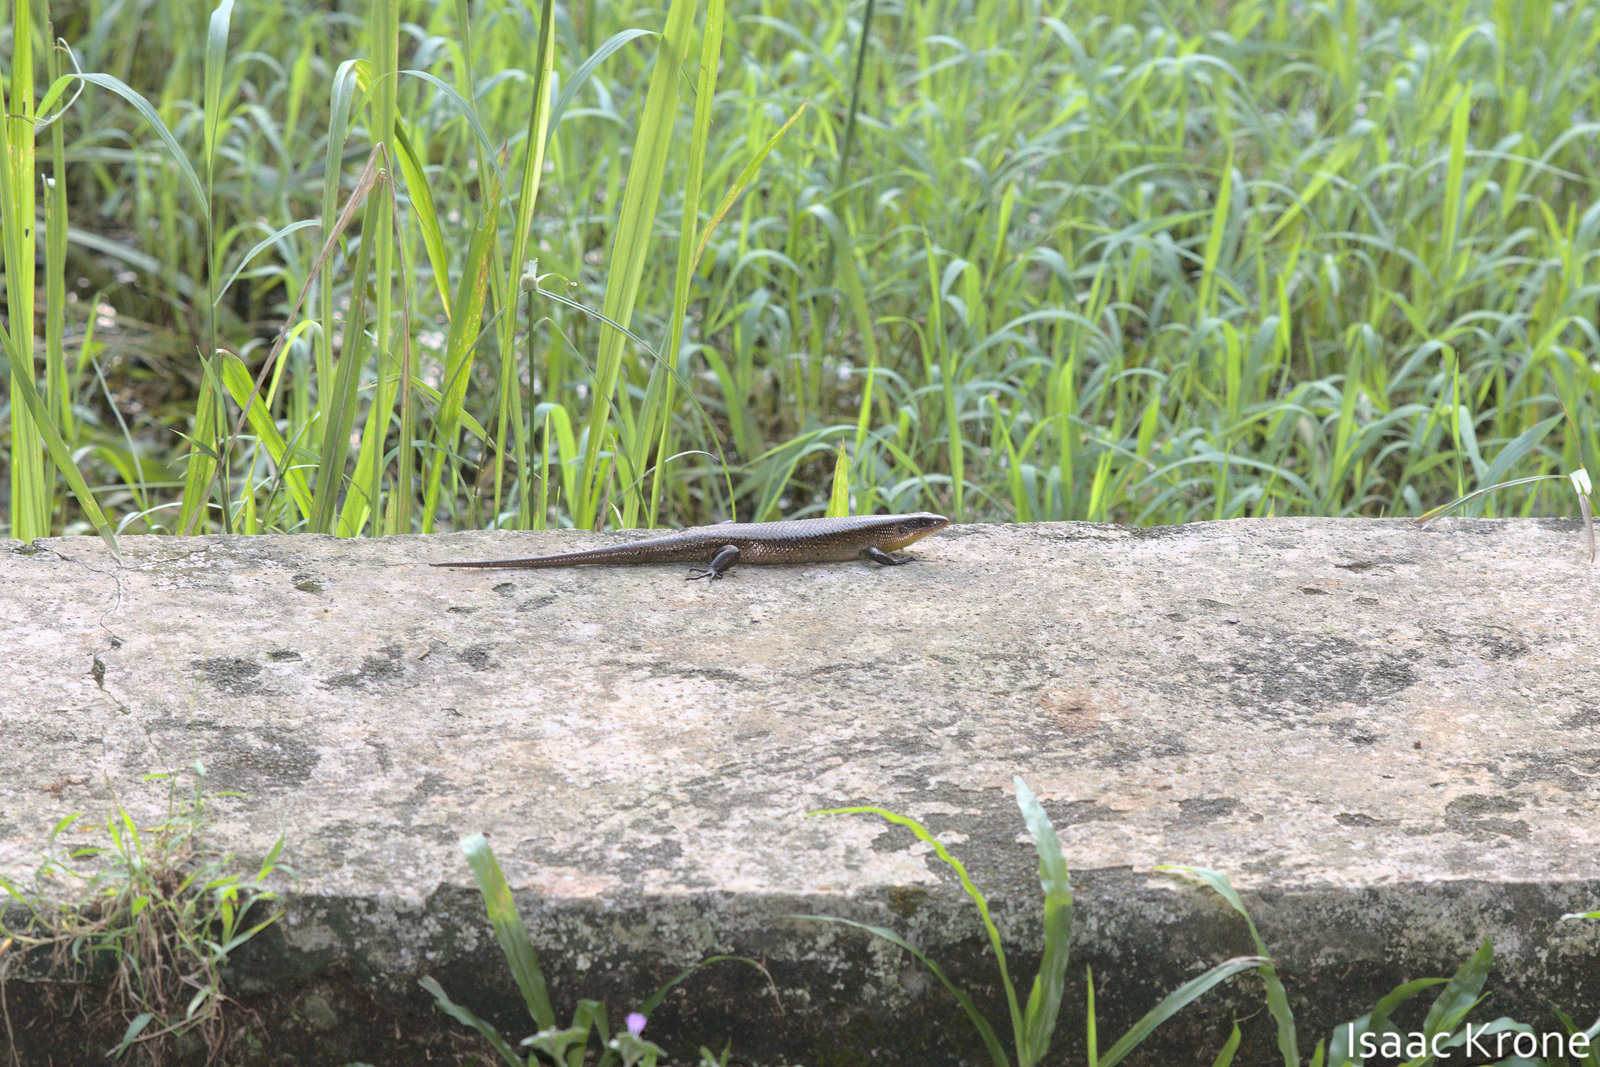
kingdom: Animalia
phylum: Chordata
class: Squamata
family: Scincidae
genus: Eutropis
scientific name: Eutropis multifasciata
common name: Common mabuya
